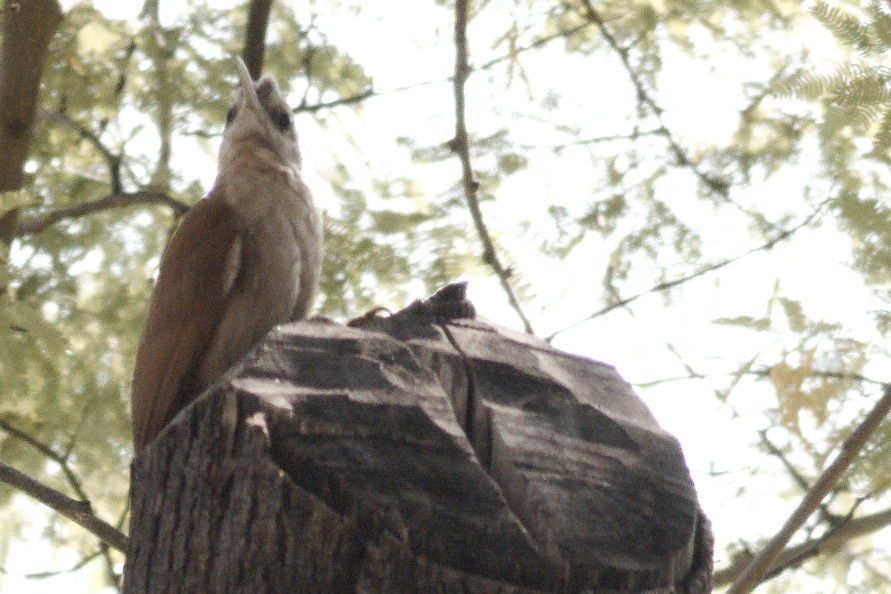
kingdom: Animalia
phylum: Chordata
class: Aves
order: Passeriformes
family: Furnariidae
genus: Lepidocolaptes
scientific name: Lepidocolaptes angustirostris
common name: Narrow-billed woodcreeper
